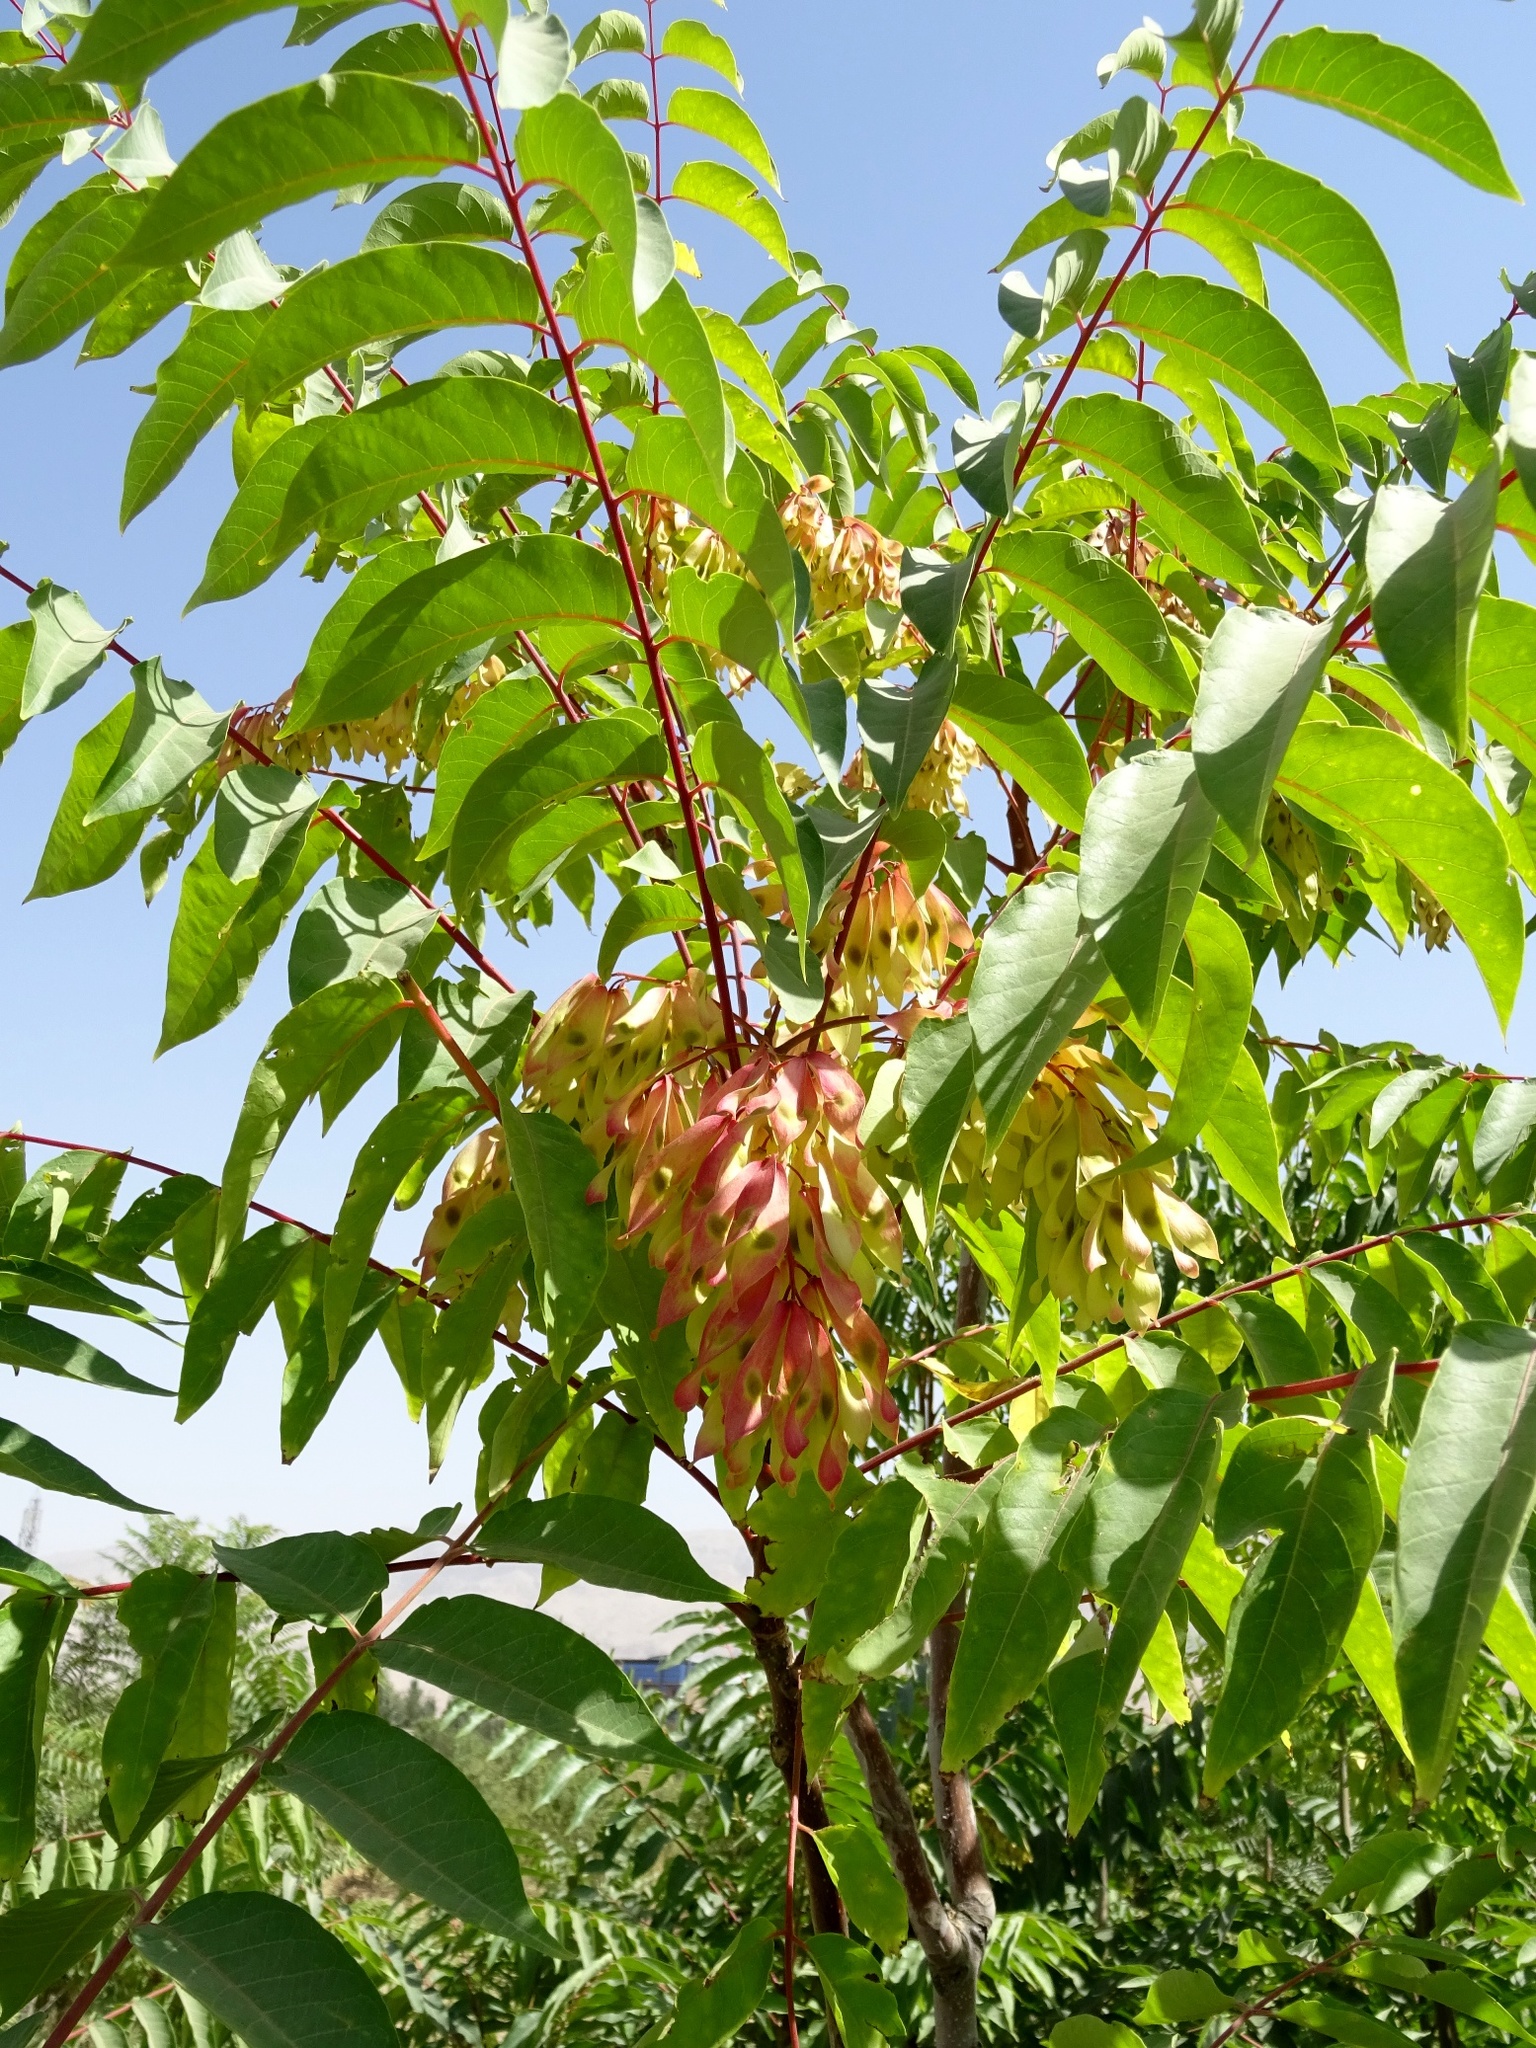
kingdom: Plantae
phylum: Tracheophyta
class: Magnoliopsida
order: Sapindales
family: Simaroubaceae
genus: Ailanthus
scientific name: Ailanthus altissima
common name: Tree-of-heaven
